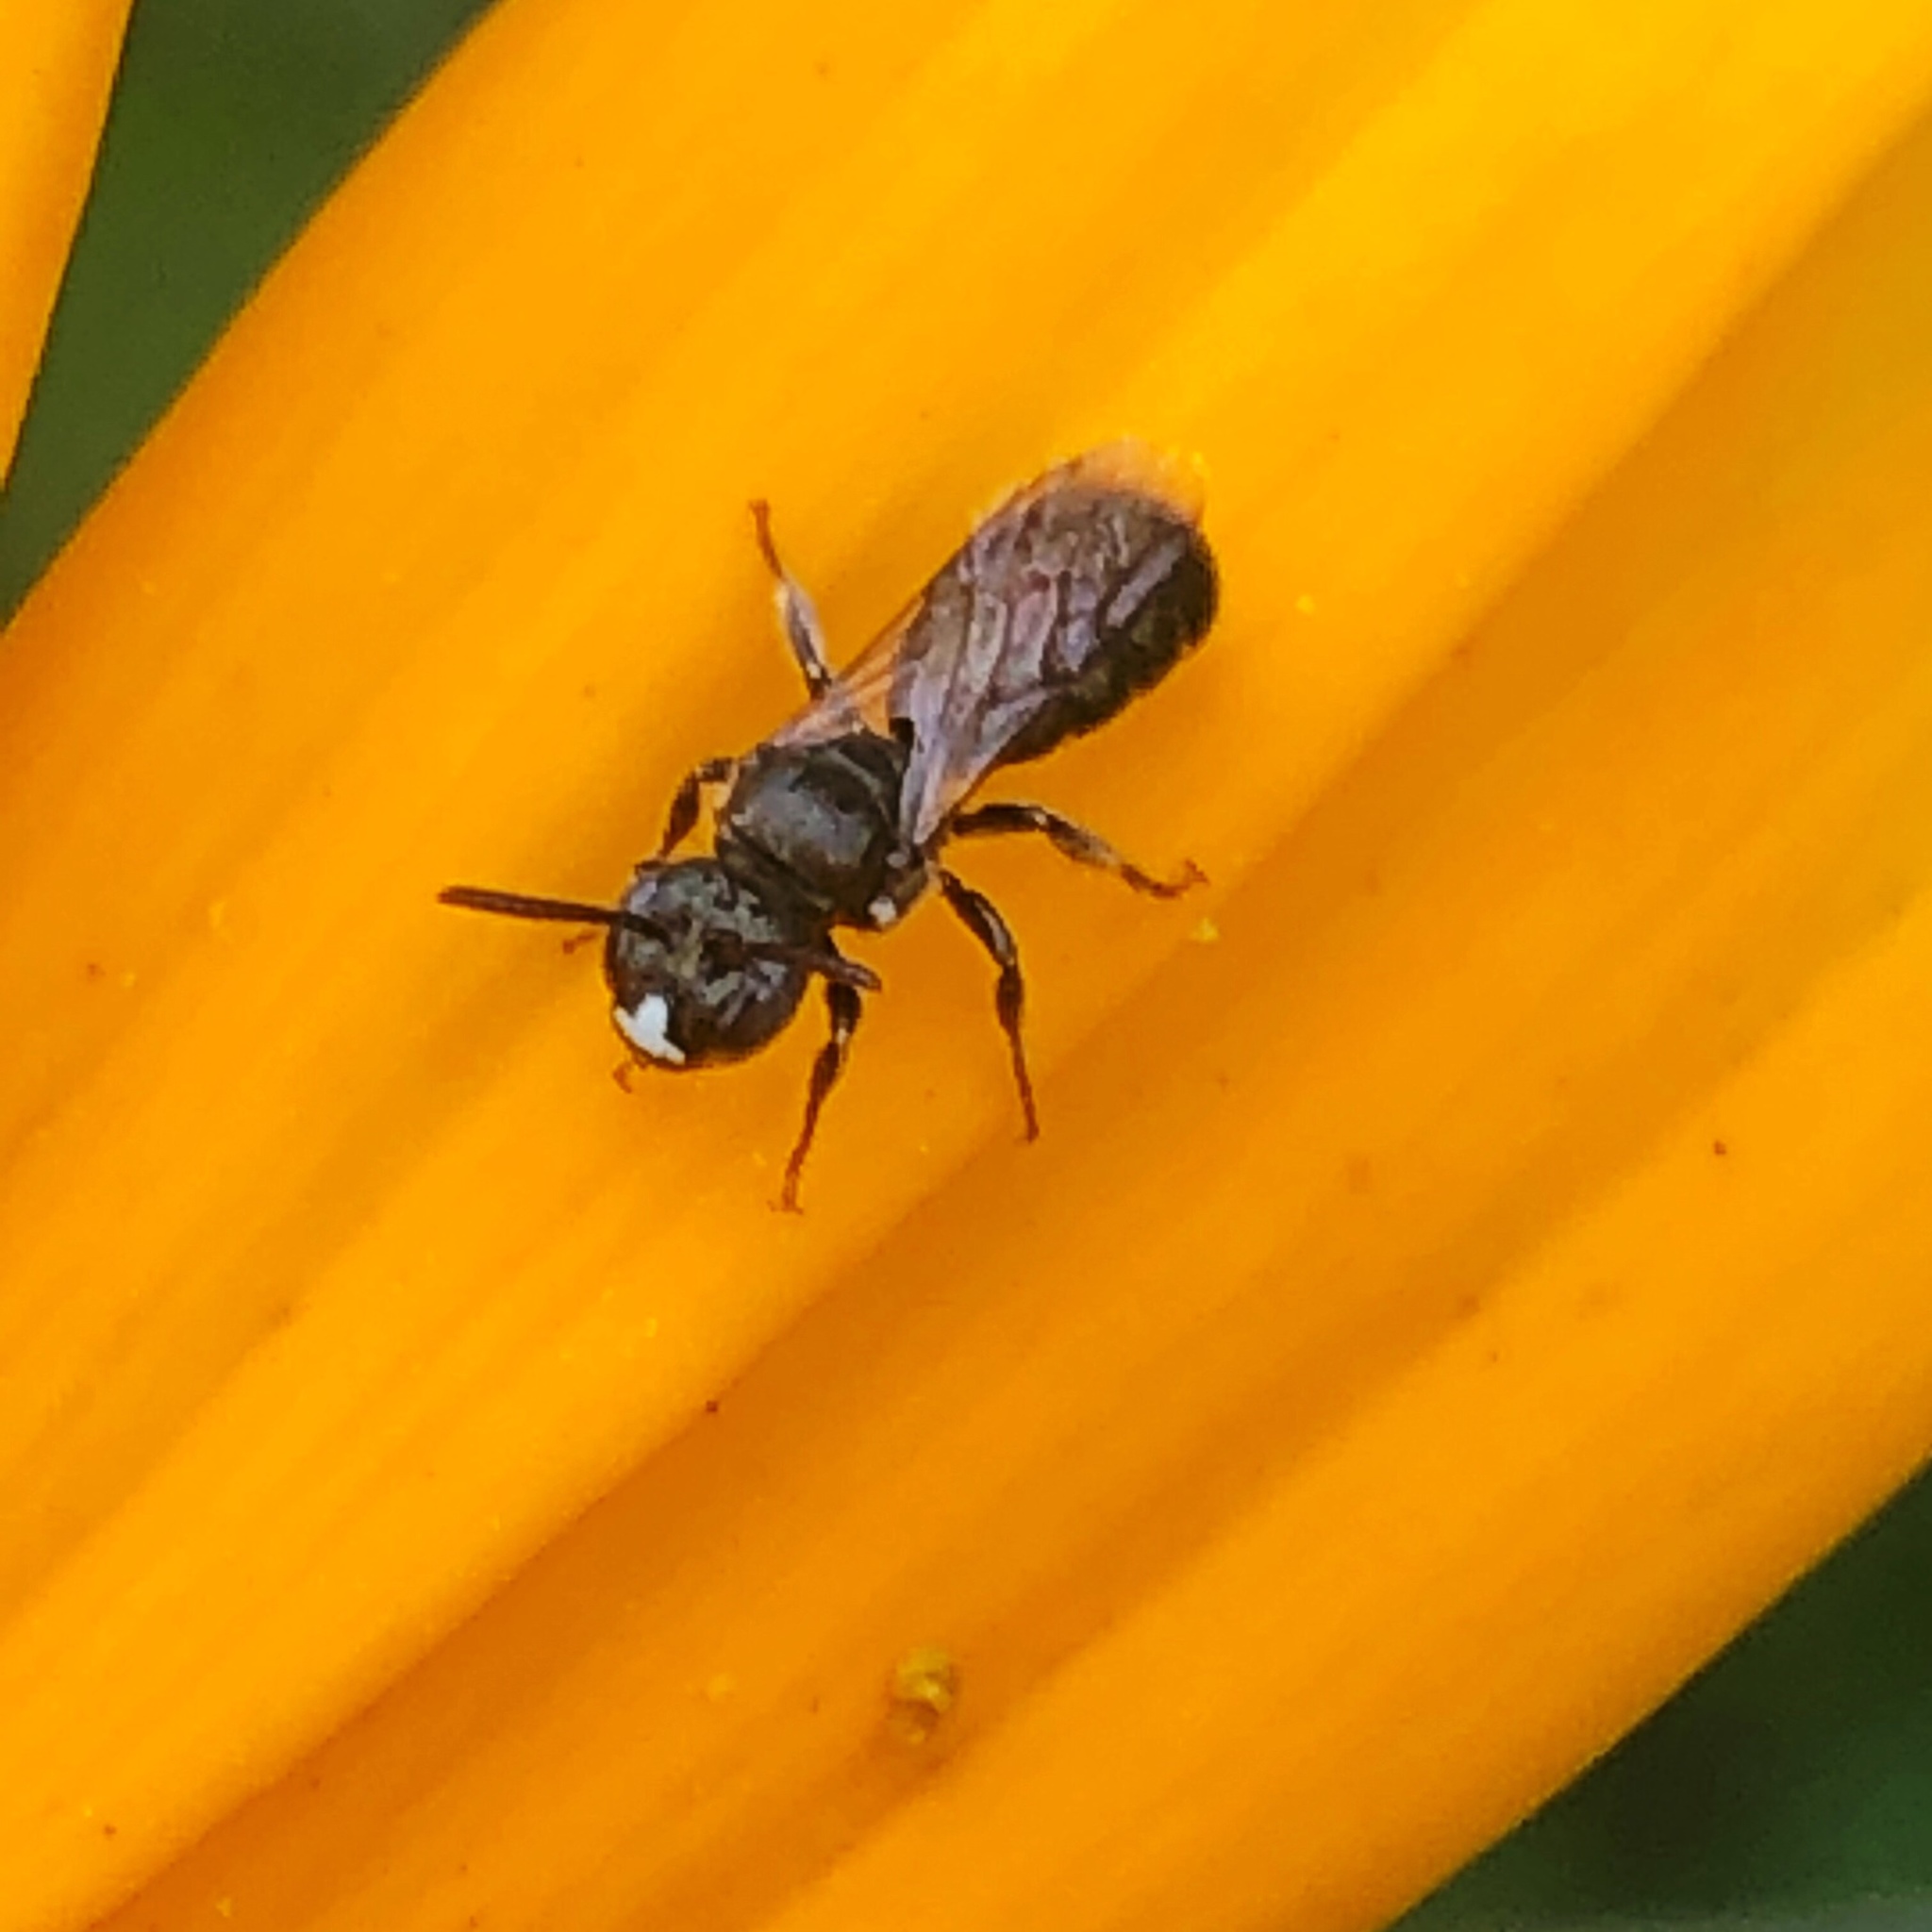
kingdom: Animalia
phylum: Arthropoda
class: Insecta
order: Hymenoptera
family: Apidae
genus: Zadontomerus
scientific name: Zadontomerus
